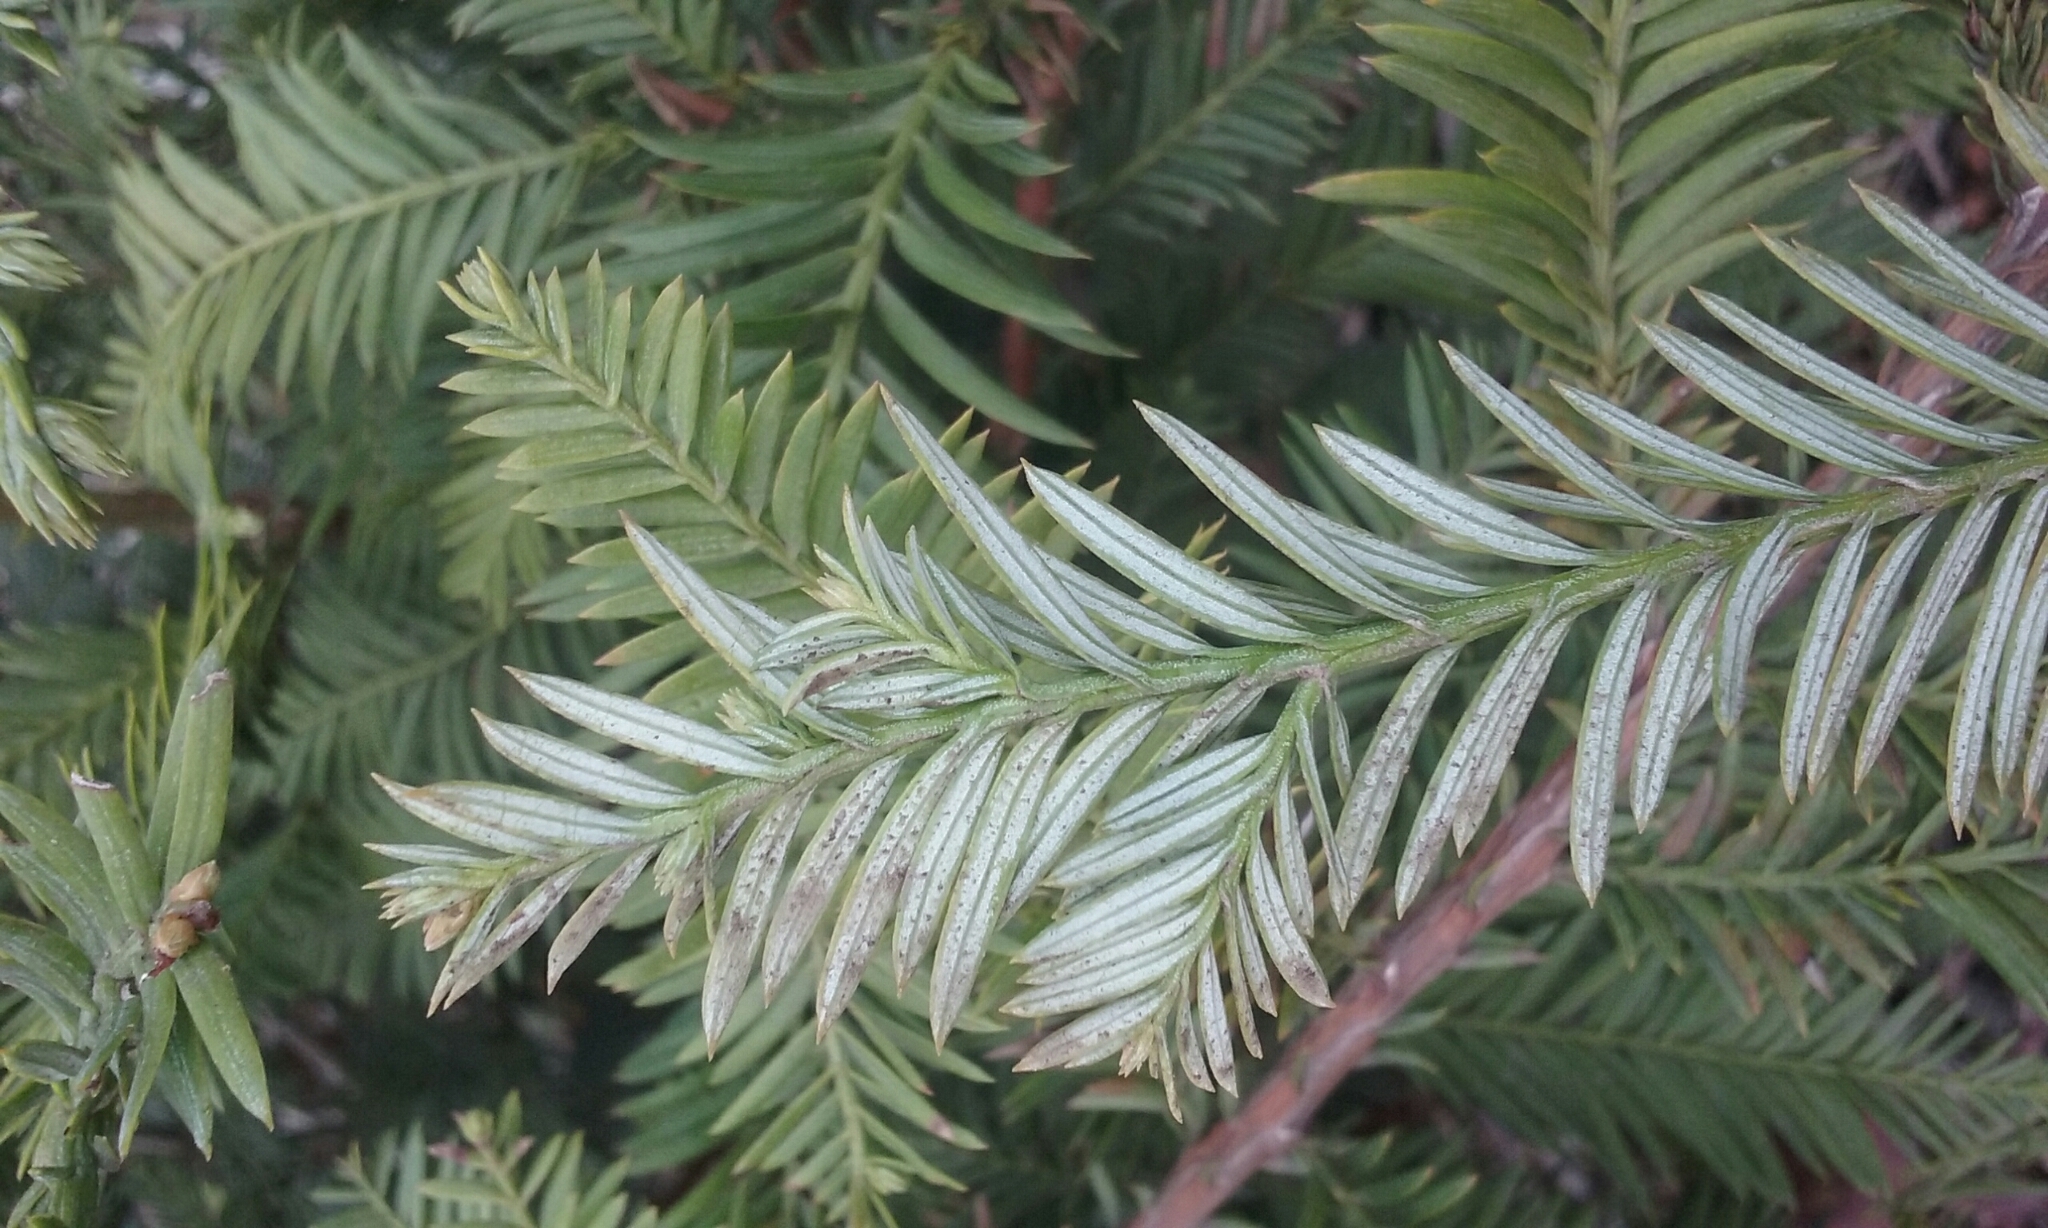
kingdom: Plantae
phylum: Tracheophyta
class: Pinopsida
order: Pinales
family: Cupressaceae
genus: Sequoia
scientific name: Sequoia sempervirens
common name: Coast redwood
